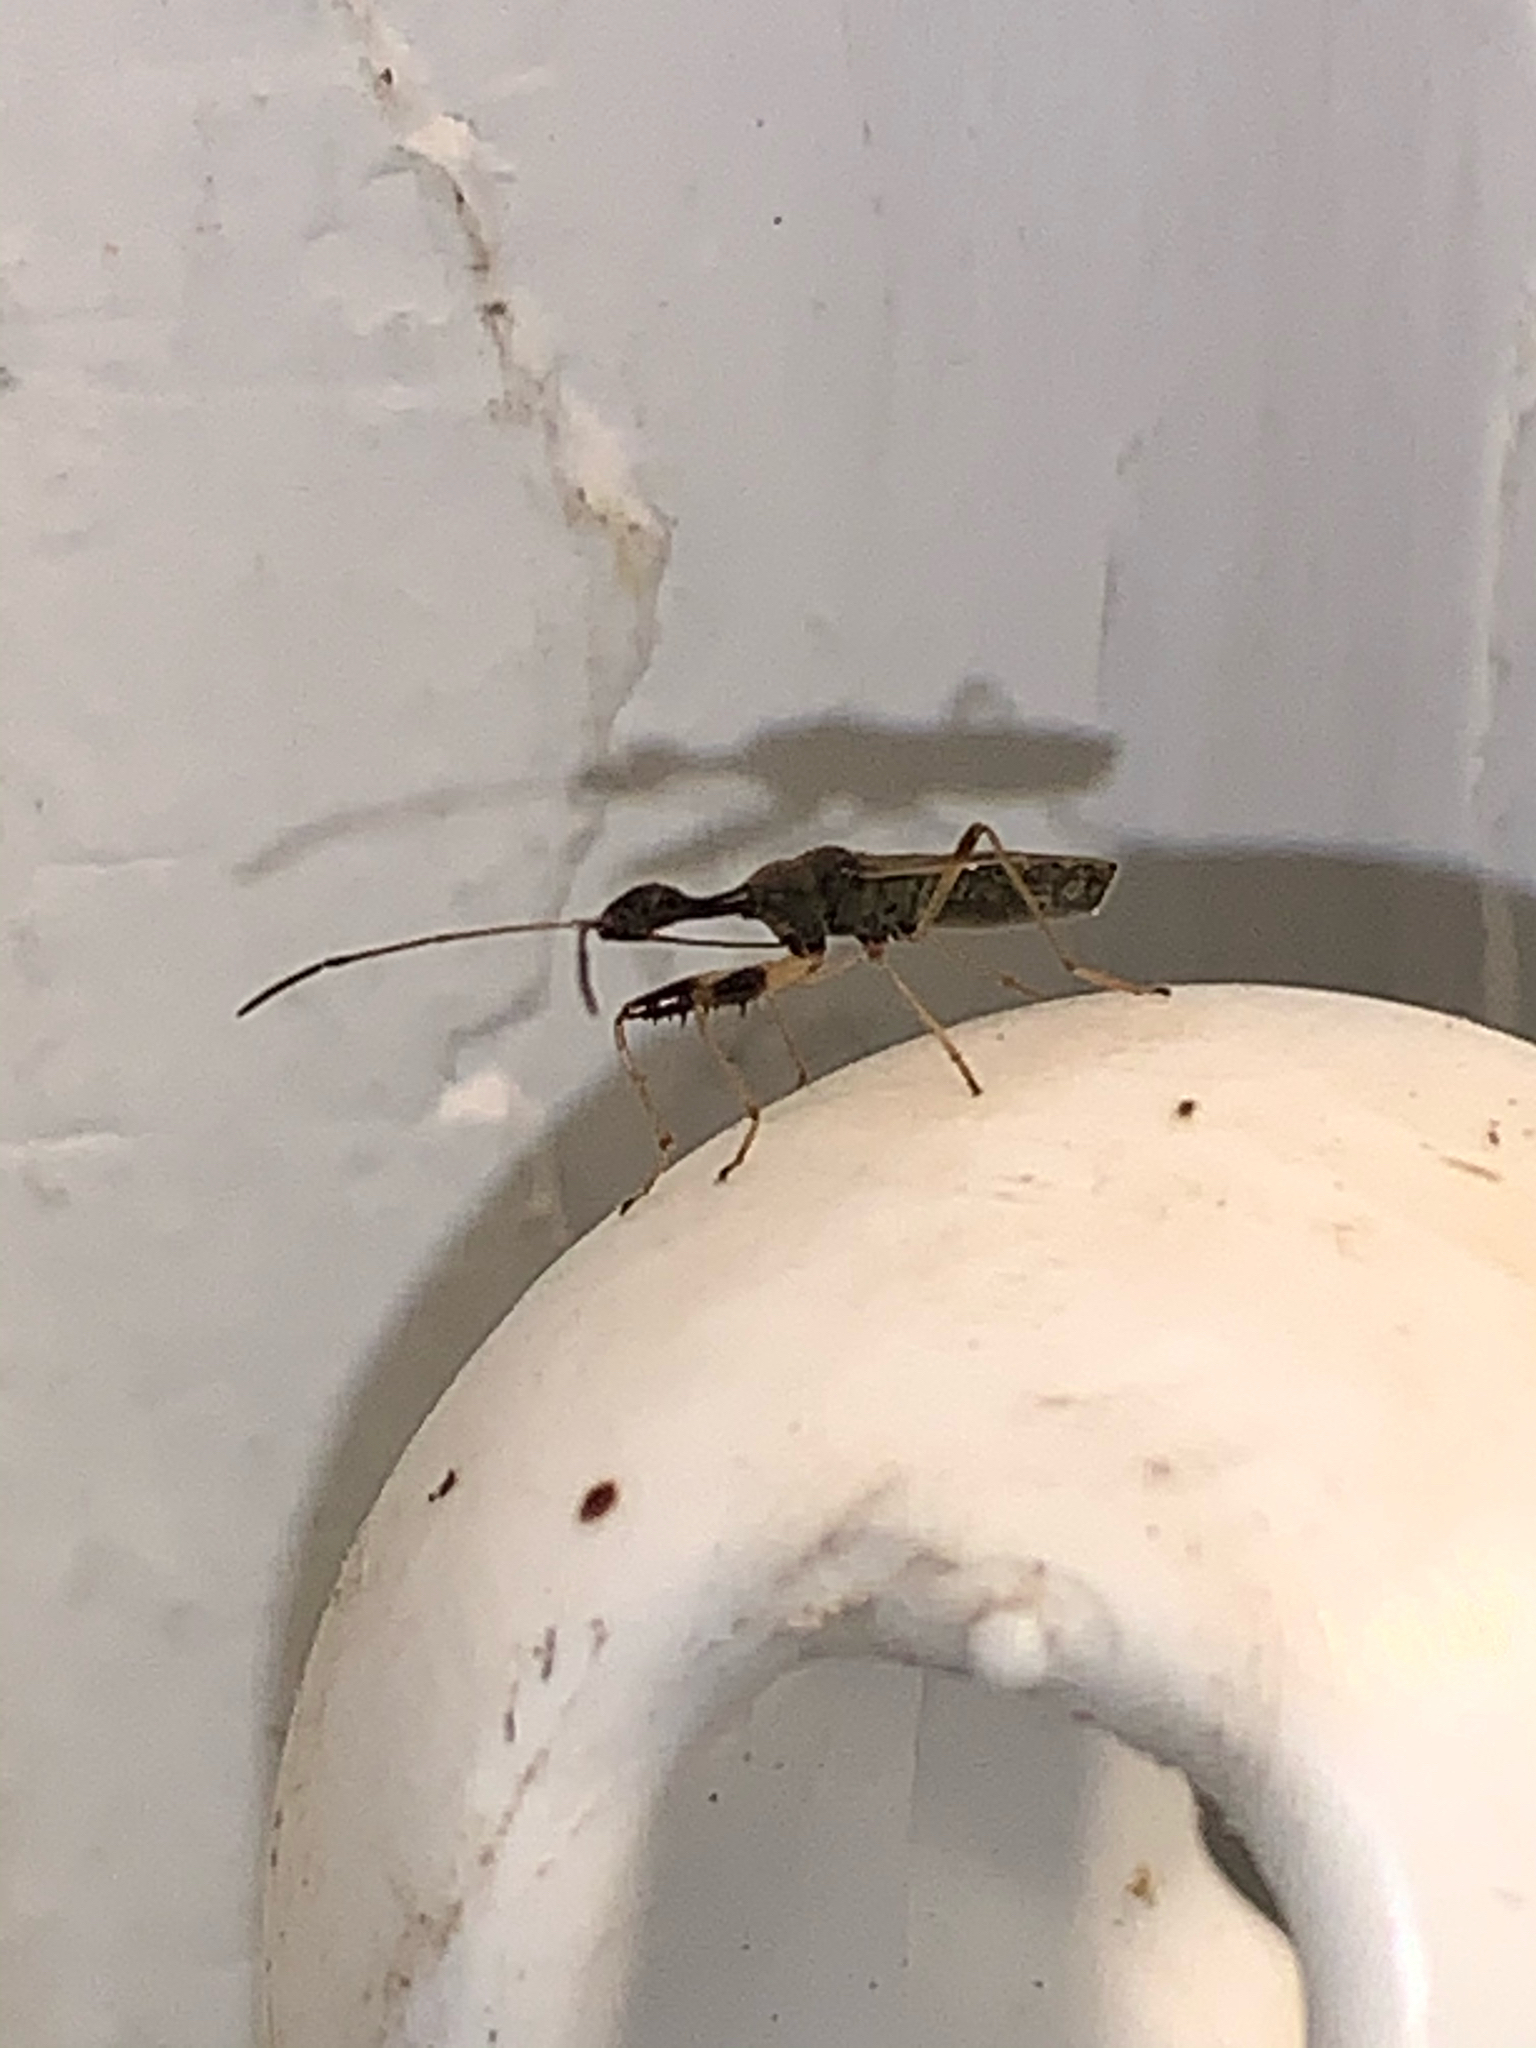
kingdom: Animalia
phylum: Arthropoda
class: Insecta
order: Hemiptera
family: Rhyparochromidae
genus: Myodocha
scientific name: Myodocha serripes
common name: Long-necked seed bug
